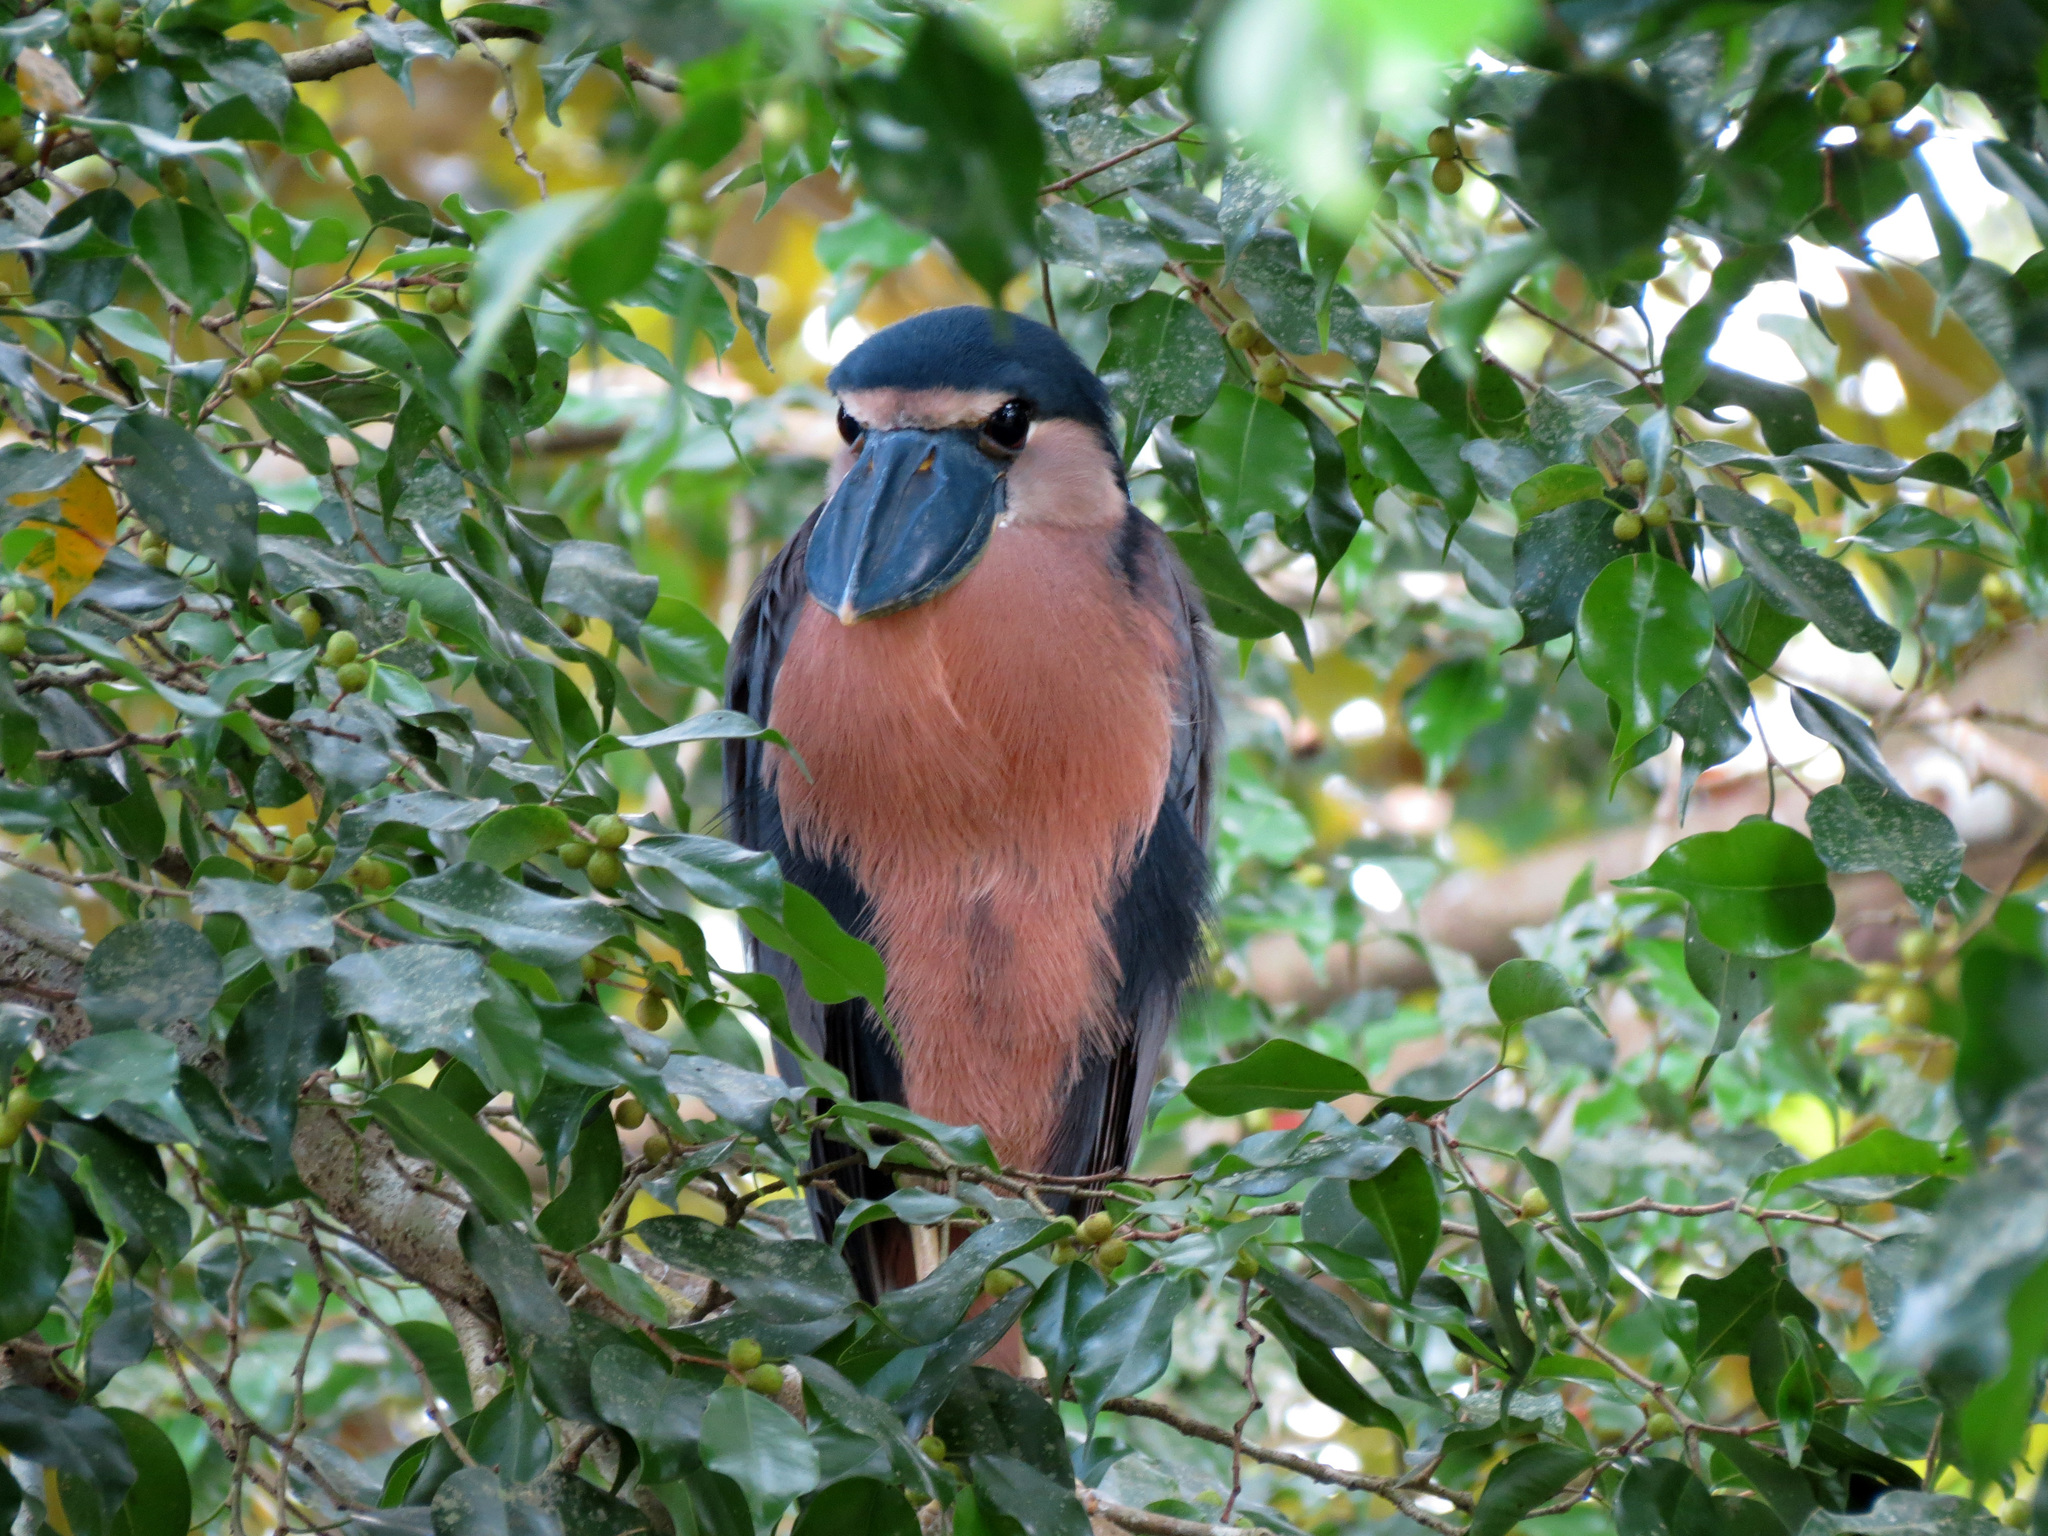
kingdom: Animalia
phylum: Chordata
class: Aves
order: Pelecaniformes
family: Ardeidae
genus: Cochlearius
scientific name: Cochlearius cochlearius
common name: Boat-billed heron
